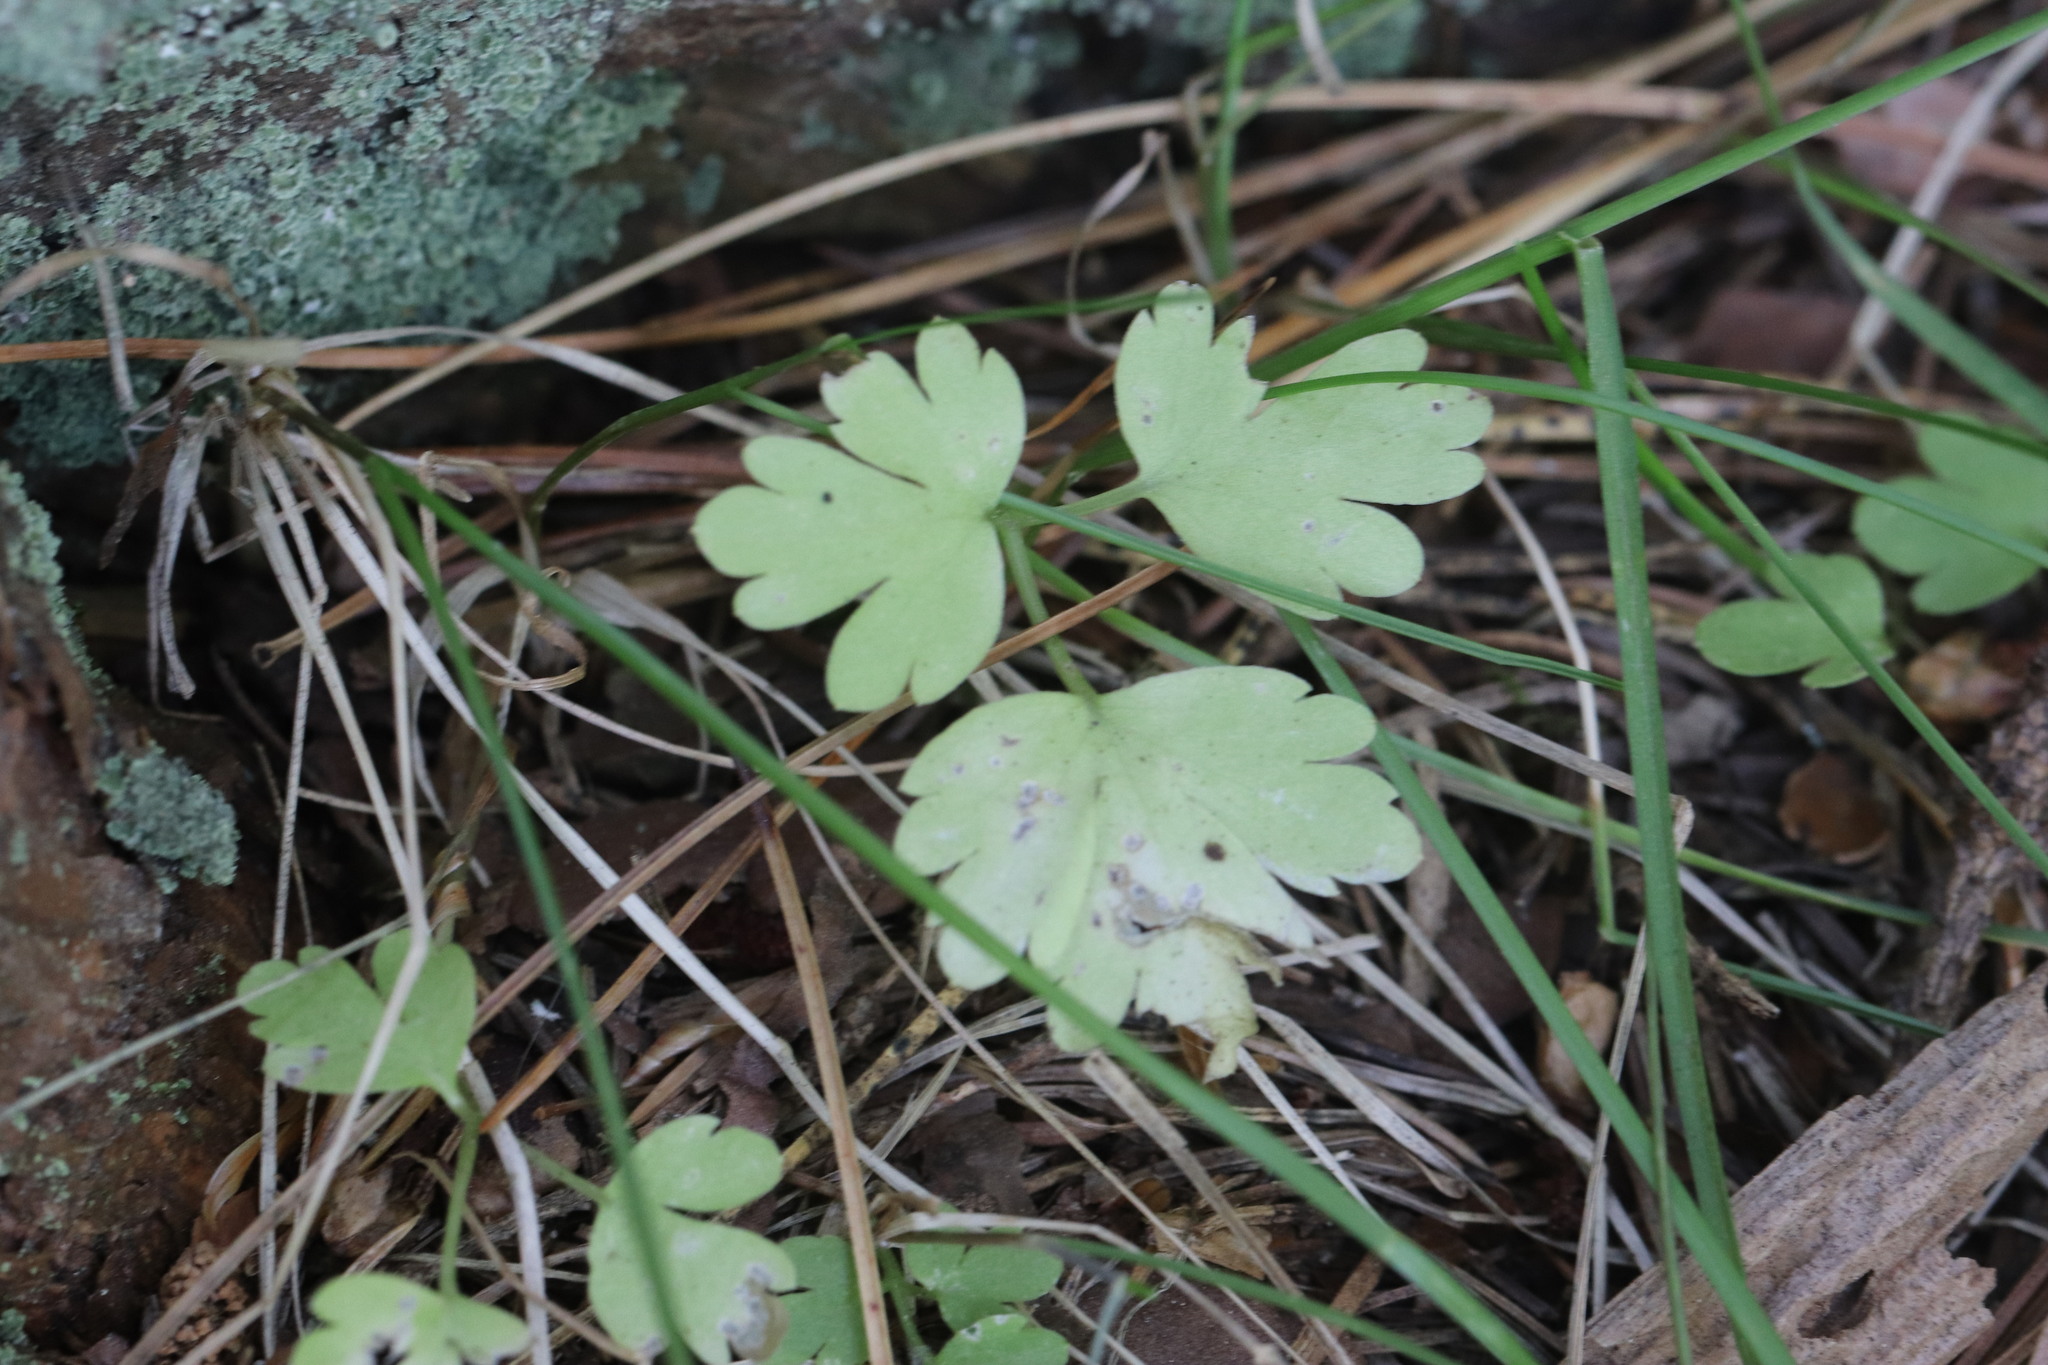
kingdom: Plantae
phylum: Tracheophyta
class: Magnoliopsida
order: Dipsacales
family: Viburnaceae
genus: Adoxa
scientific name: Adoxa moschatellina
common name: Moschatel
